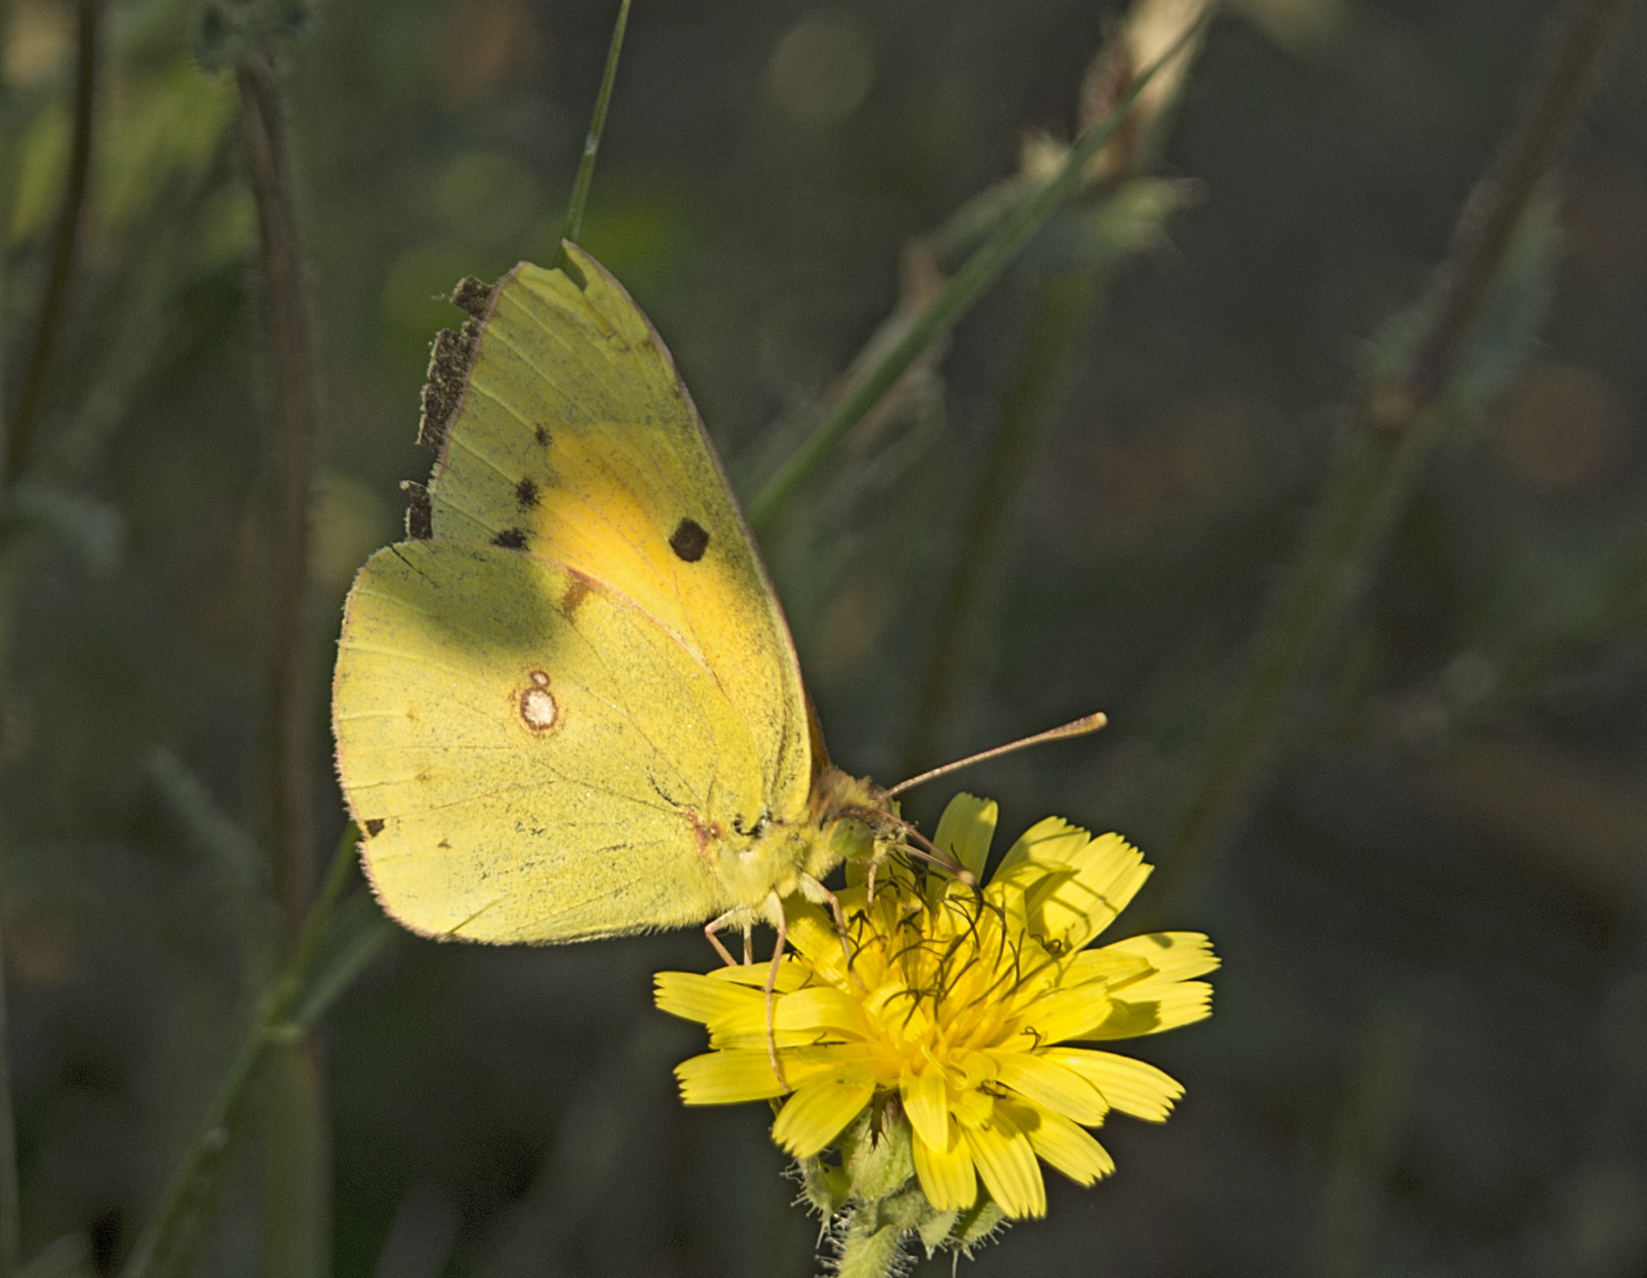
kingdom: Animalia
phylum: Arthropoda
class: Insecta
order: Lepidoptera
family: Pieridae
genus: Colias
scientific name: Colias croceus
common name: Clouded yellow
